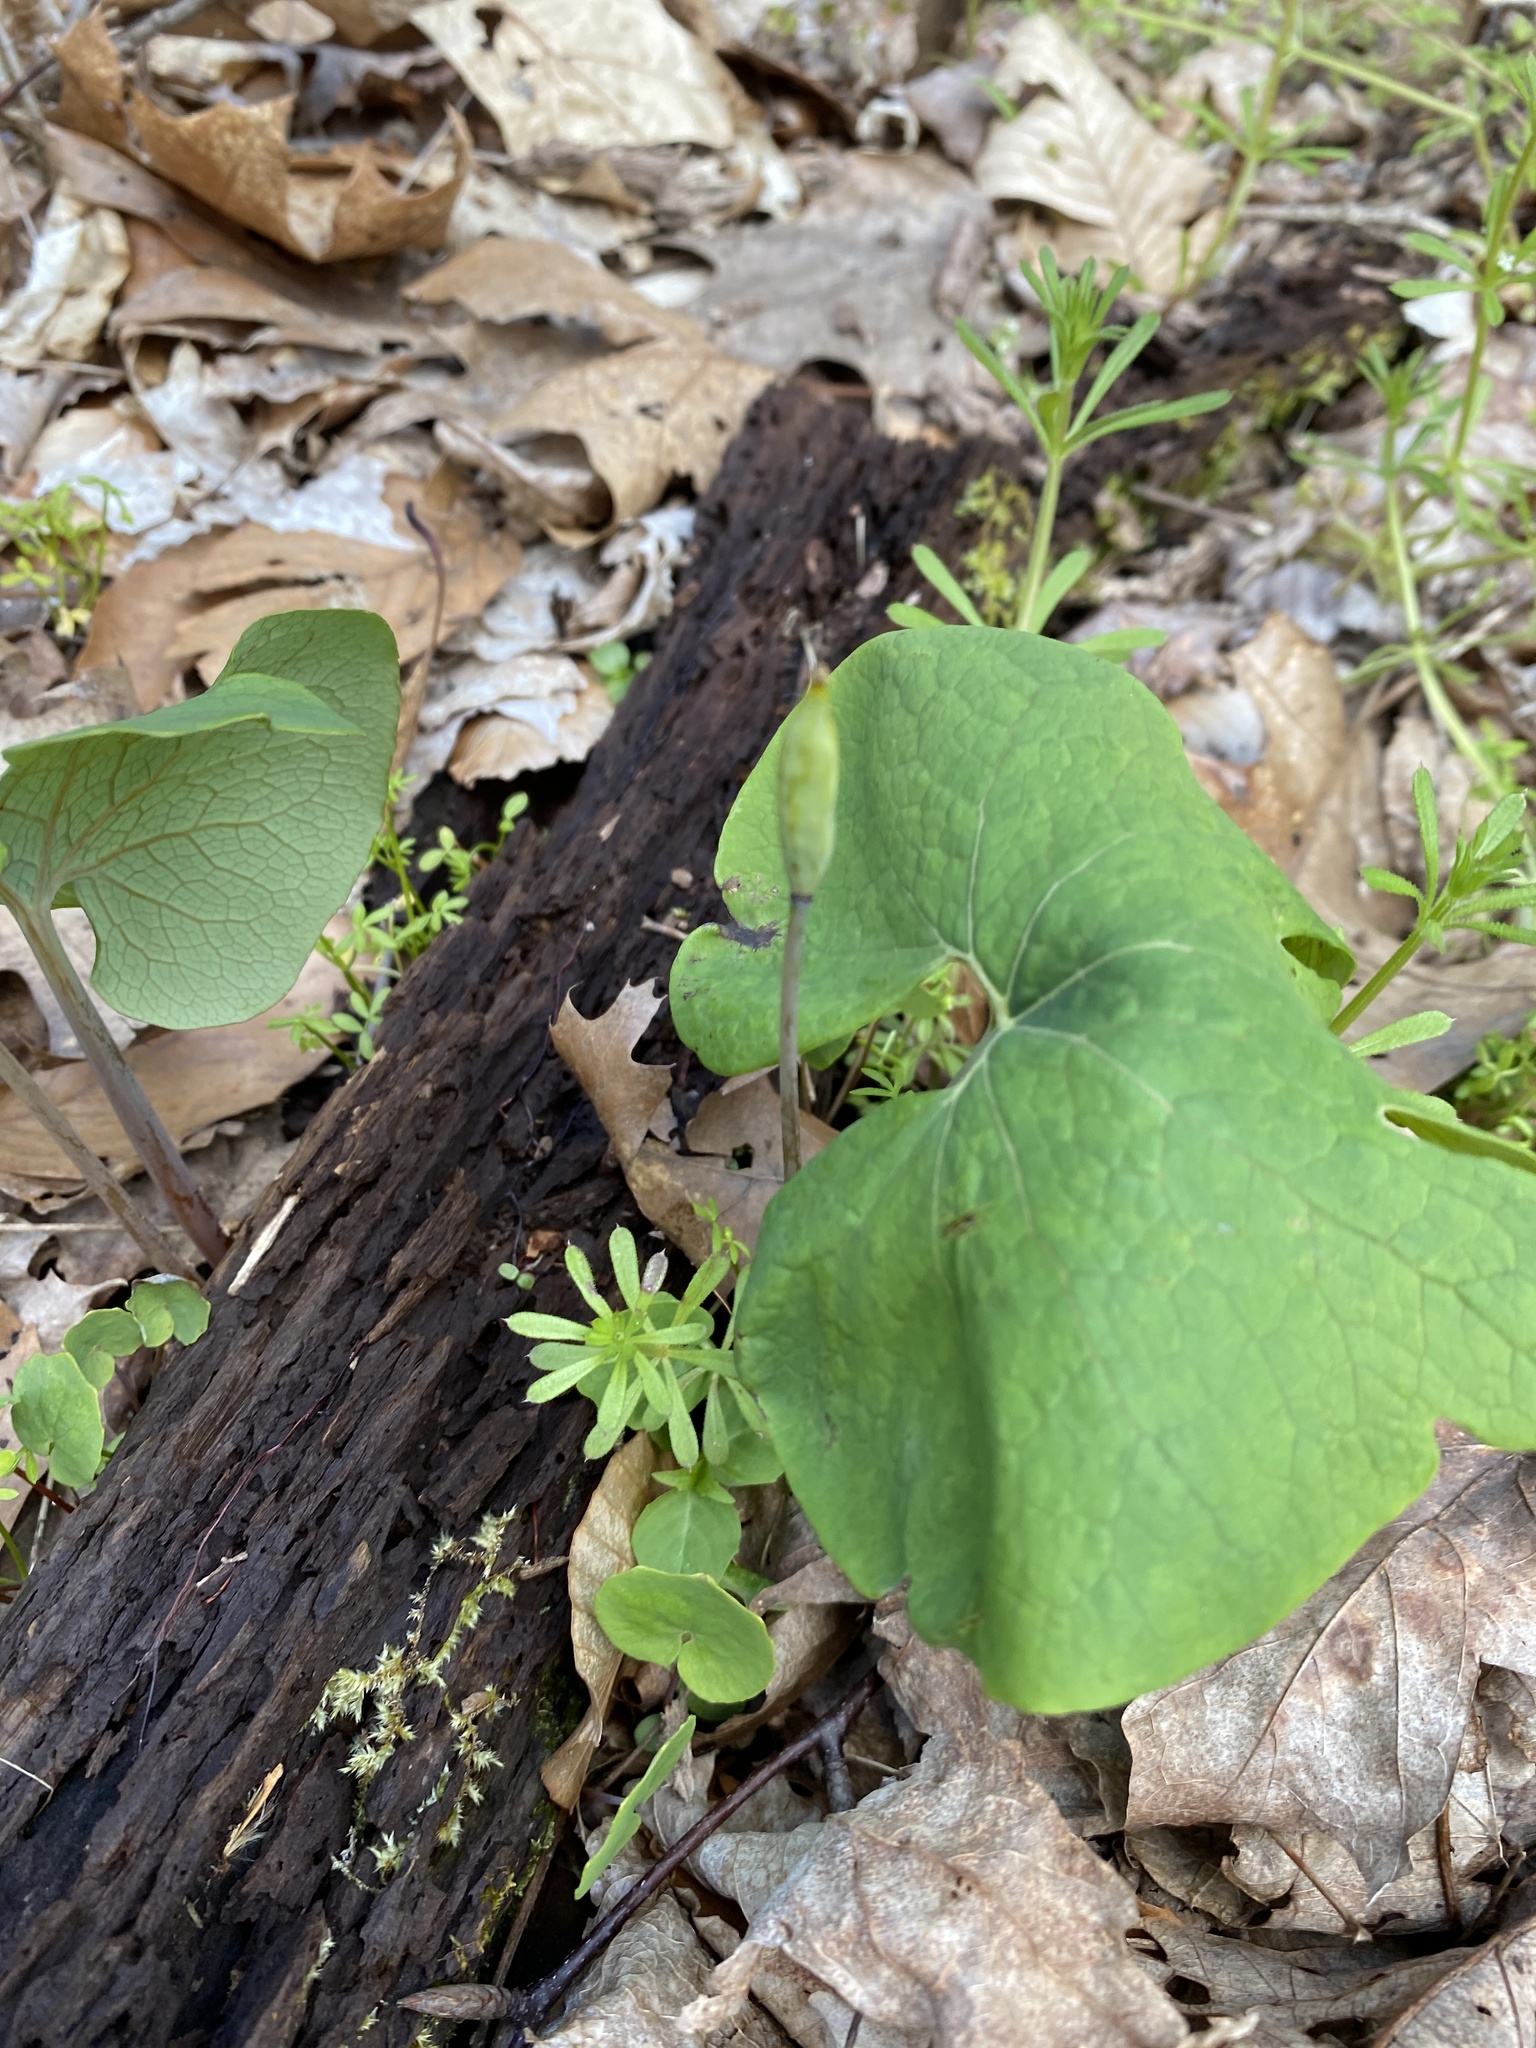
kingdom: Plantae
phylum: Tracheophyta
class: Magnoliopsida
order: Ranunculales
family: Papaveraceae
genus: Sanguinaria
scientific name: Sanguinaria canadensis
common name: Bloodroot
